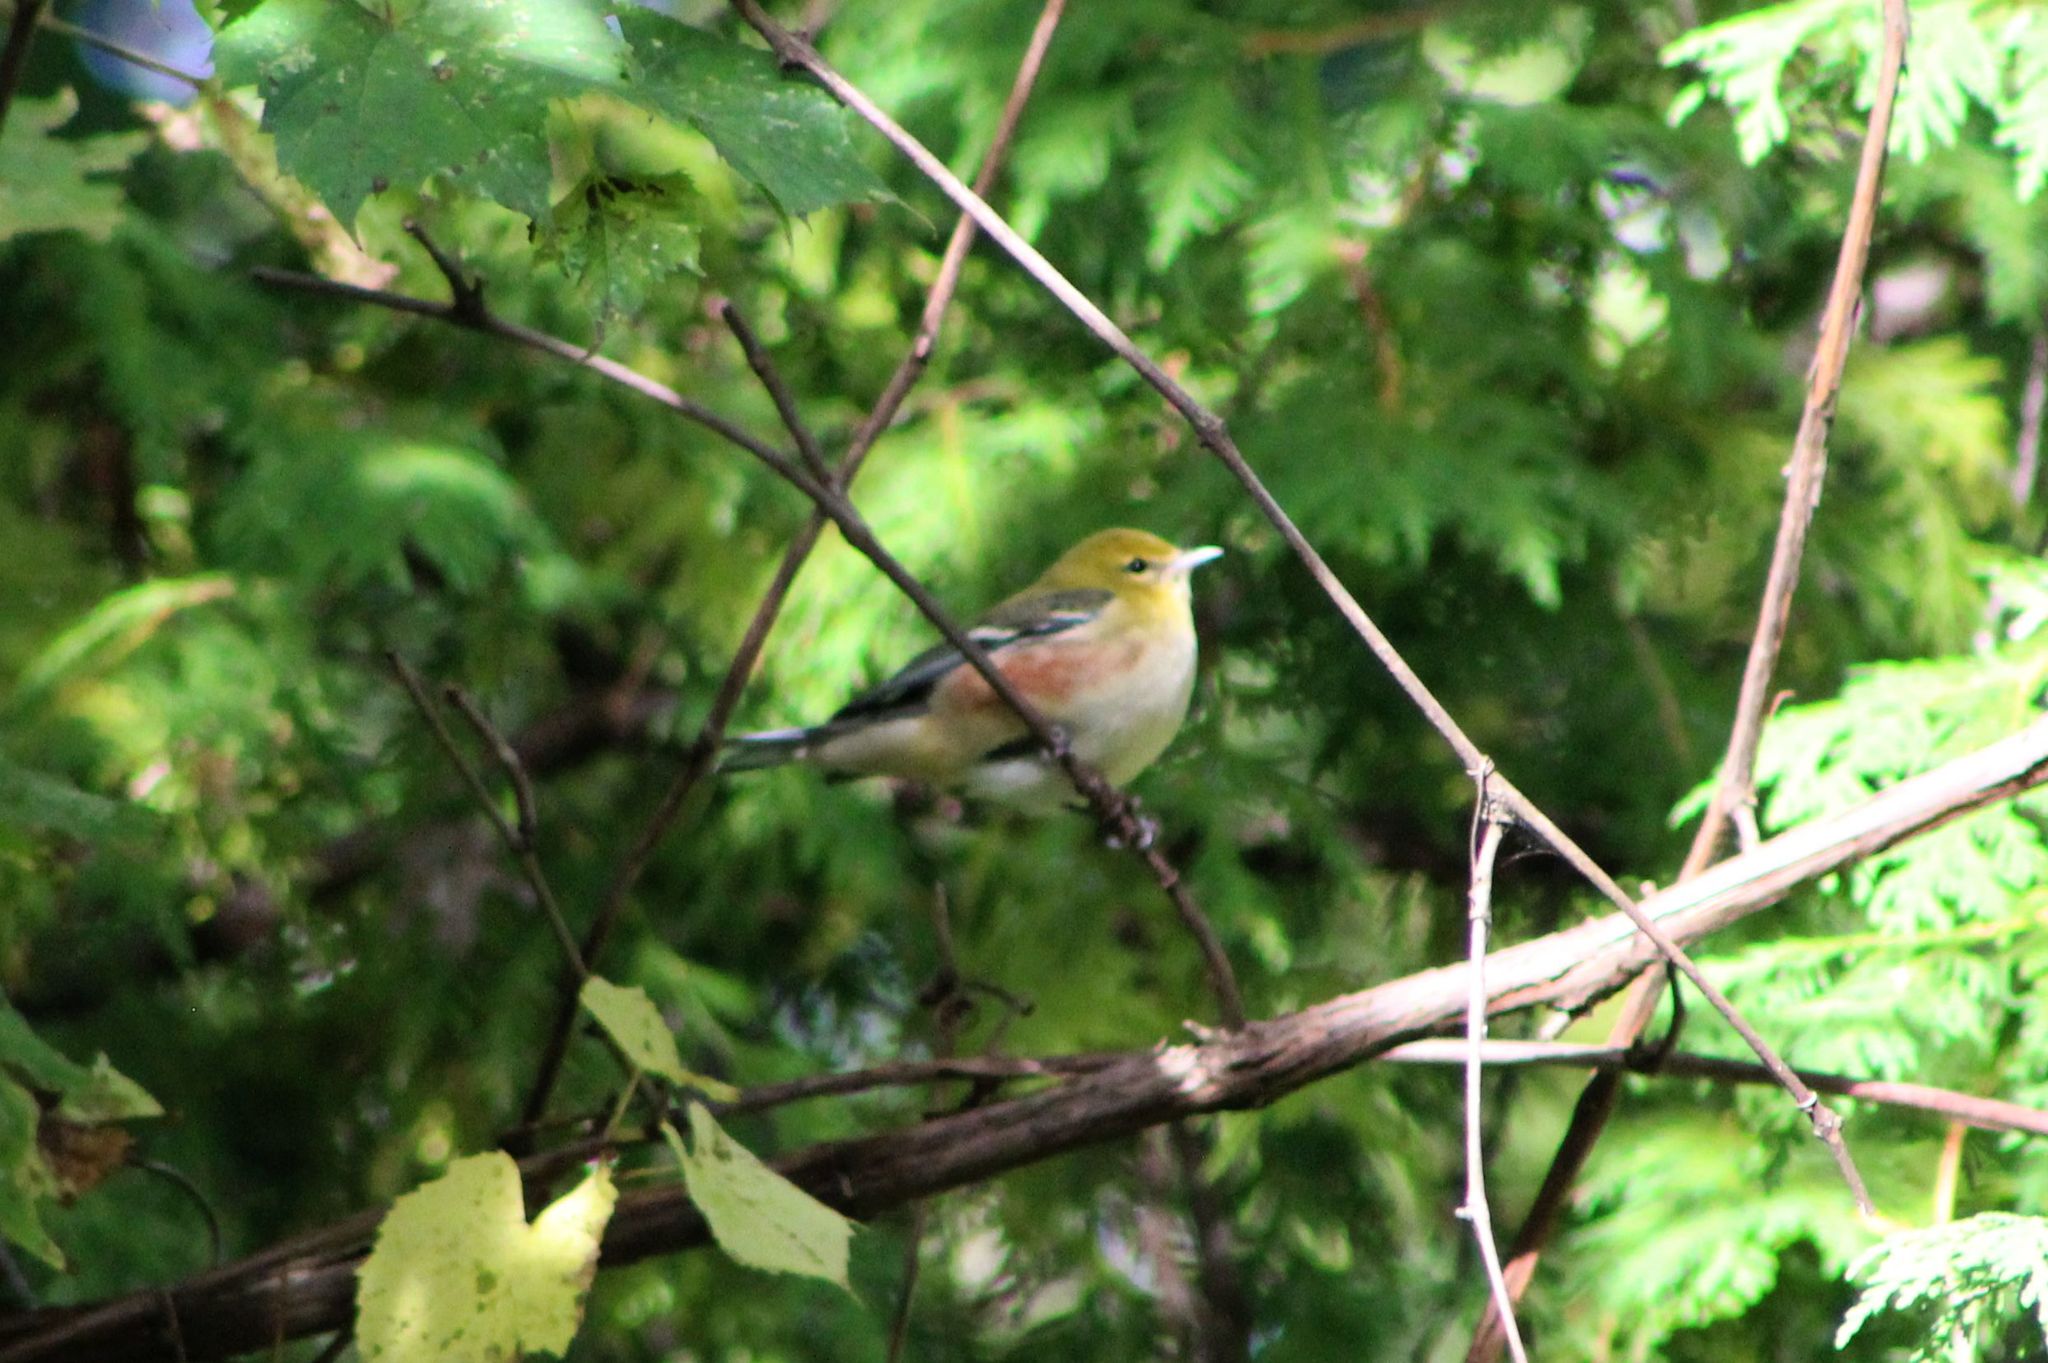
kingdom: Animalia
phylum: Chordata
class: Aves
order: Passeriformes
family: Parulidae
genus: Setophaga
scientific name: Setophaga castanea
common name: Bay-breasted warbler
